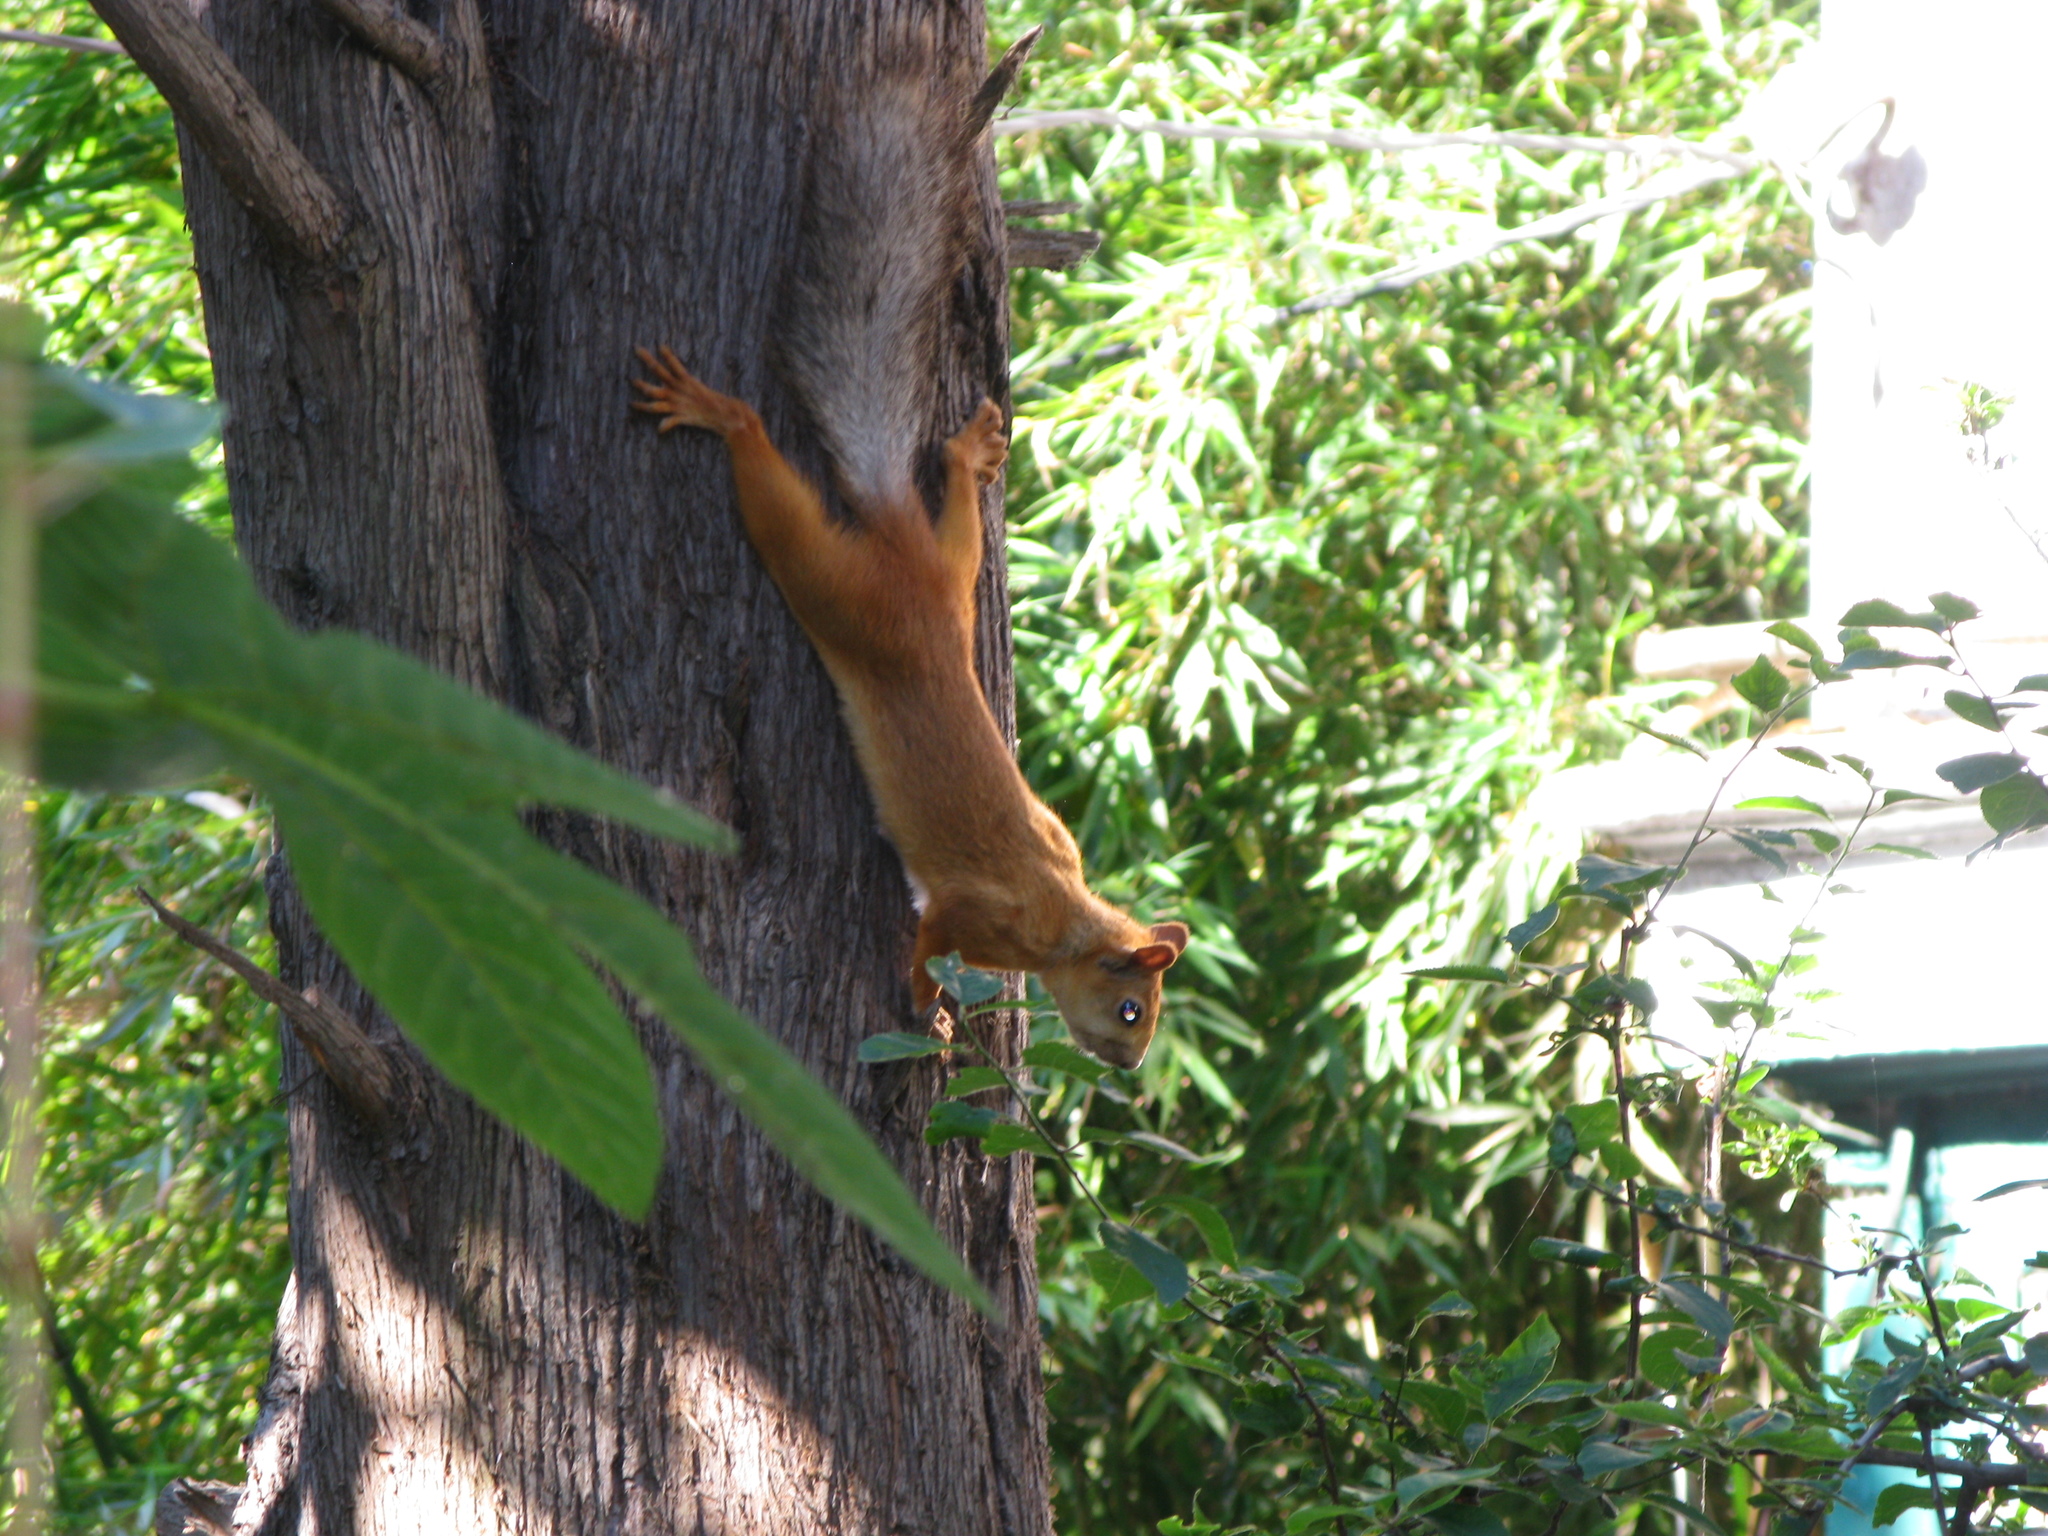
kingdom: Animalia
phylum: Chordata
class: Mammalia
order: Rodentia
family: Sciuridae
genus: Sciurus
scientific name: Sciurus vulgaris
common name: Eurasian red squirrel
